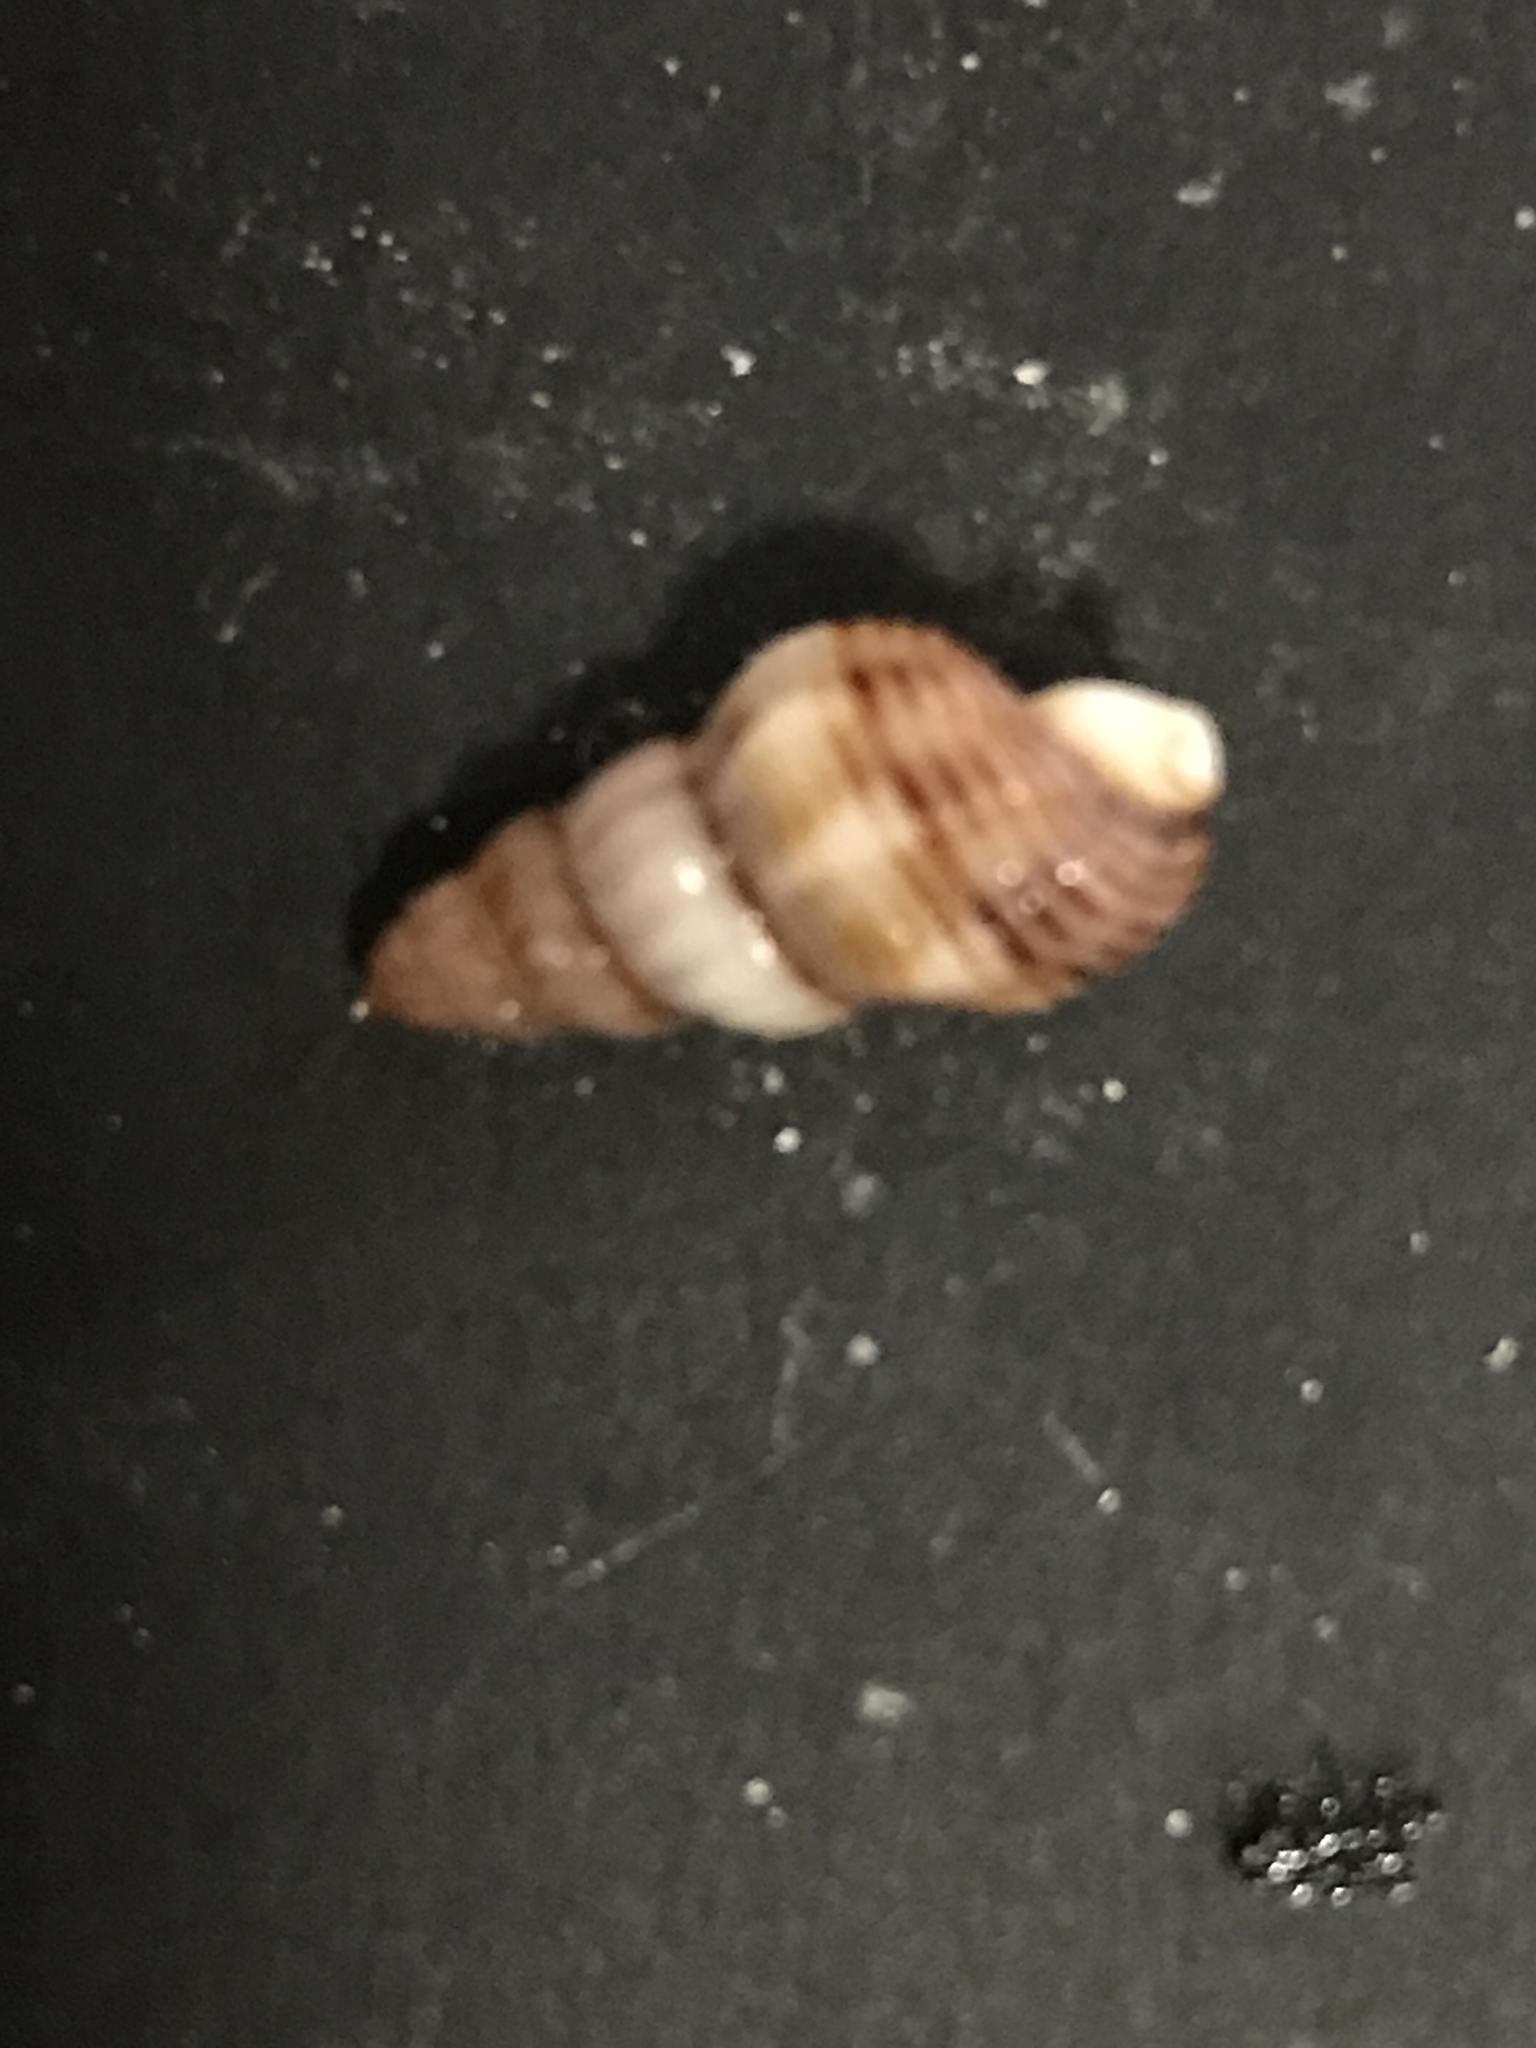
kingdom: Animalia
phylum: Mollusca
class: Gastropoda
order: Neogastropoda
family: Nassariidae
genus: Nassarius
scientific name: Nassarius mendicus
